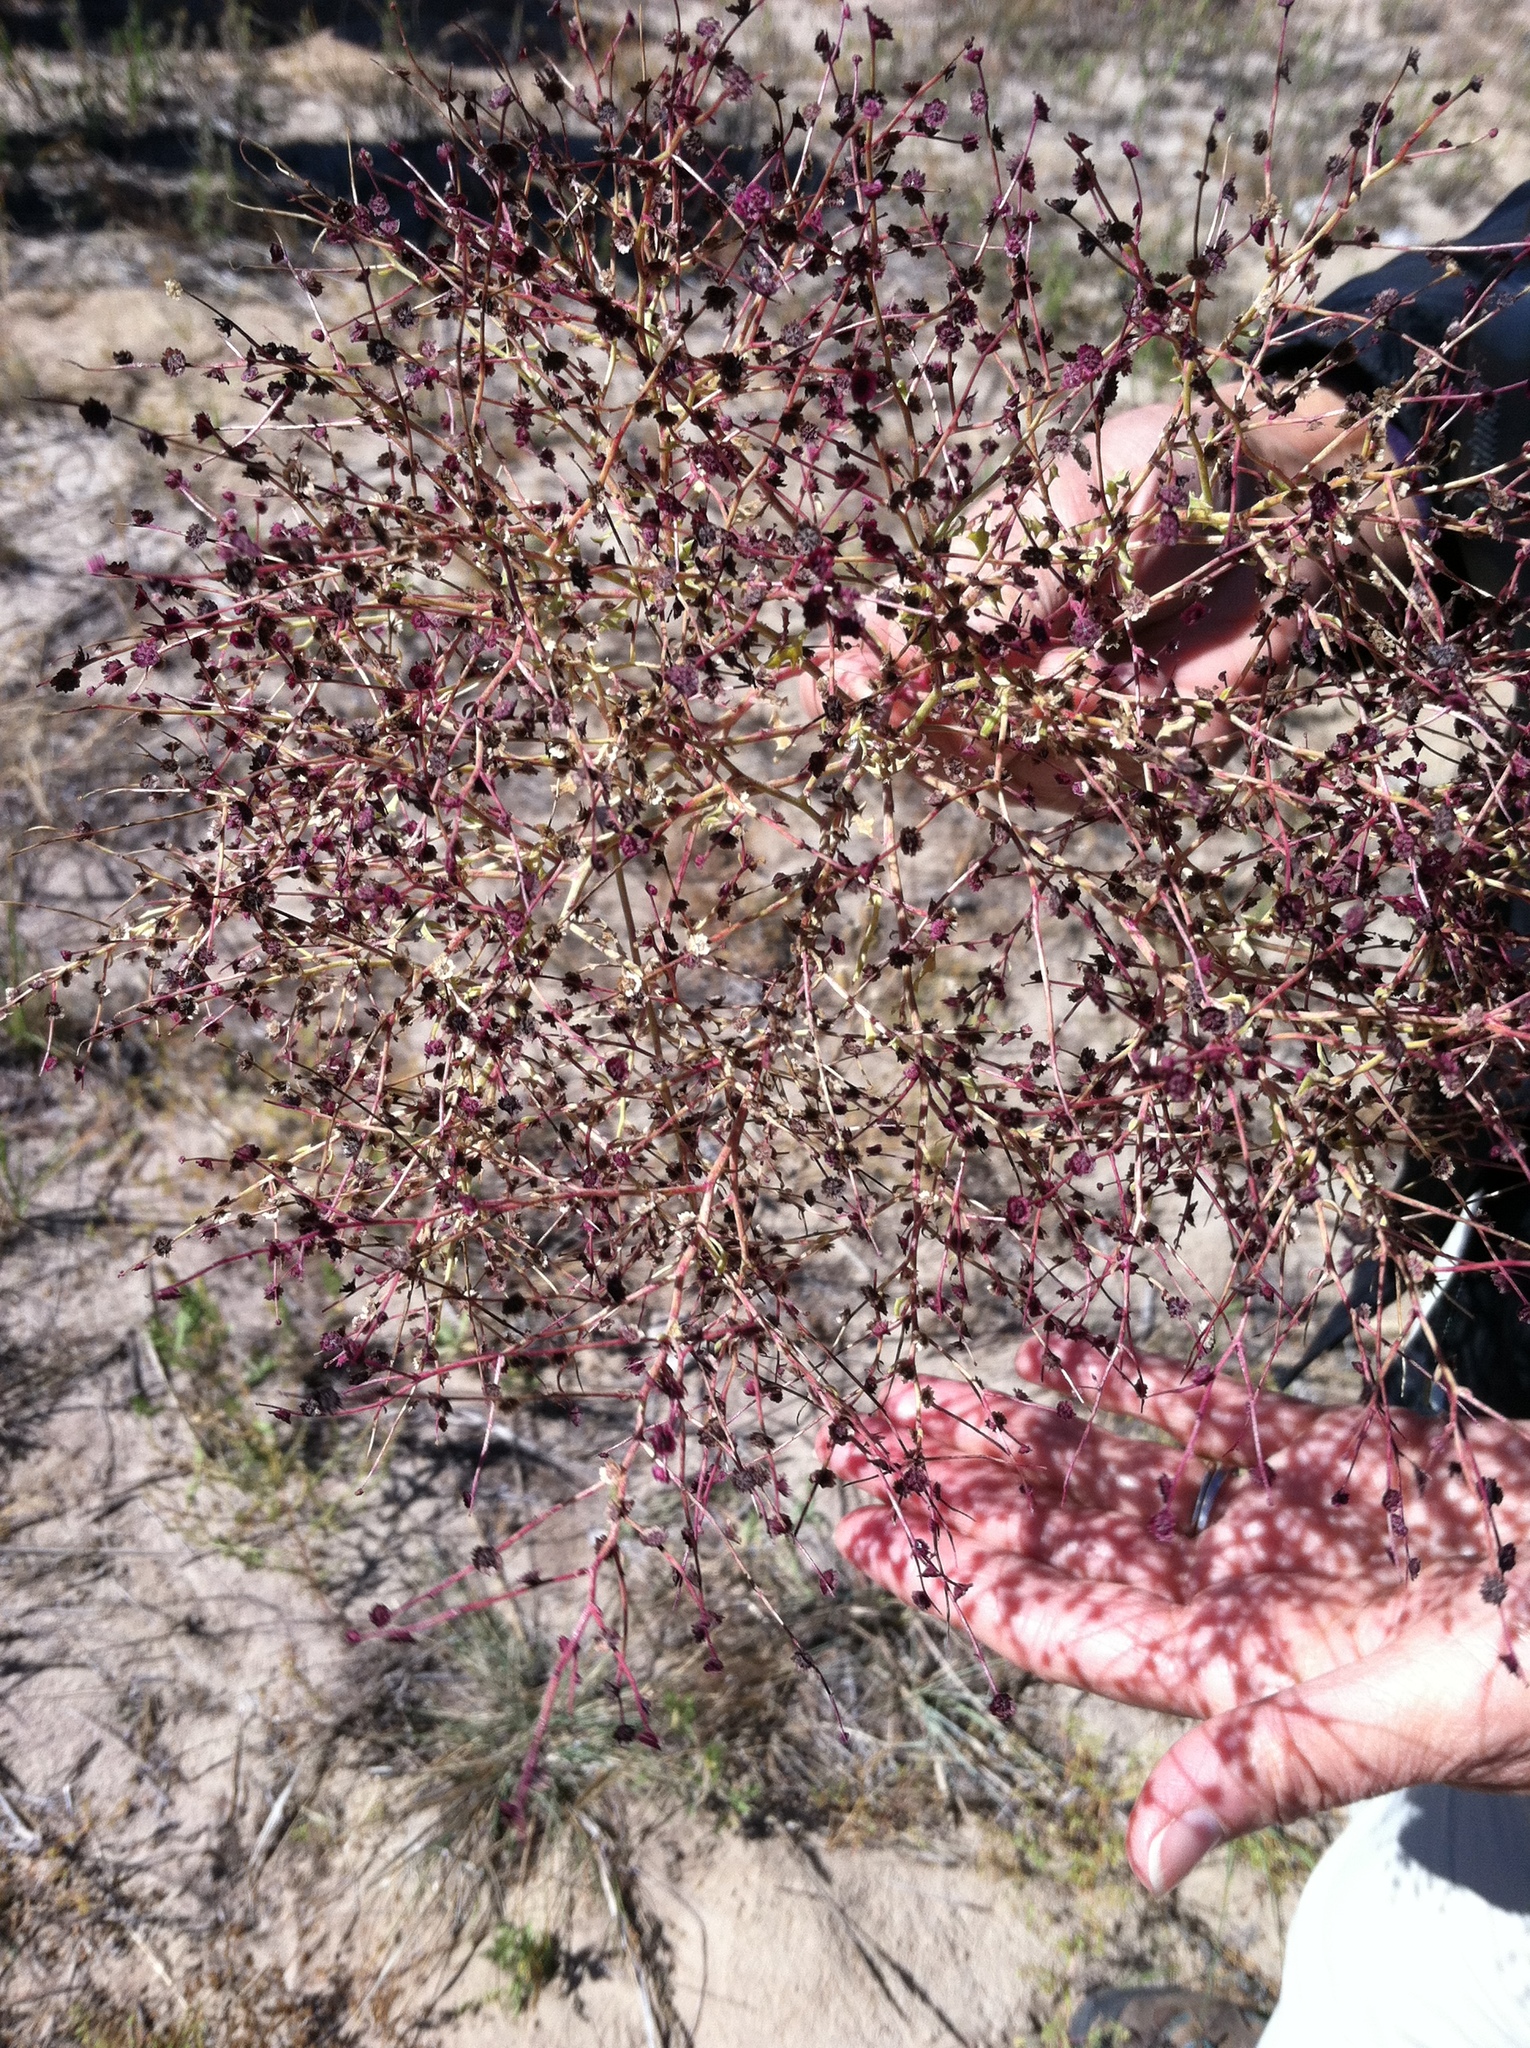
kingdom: Plantae
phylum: Tracheophyta
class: Magnoliopsida
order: Caryophyllales
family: Amaranthaceae
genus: Dysphania
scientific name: Dysphania atriplicifolia
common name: Plains tumbleweed
